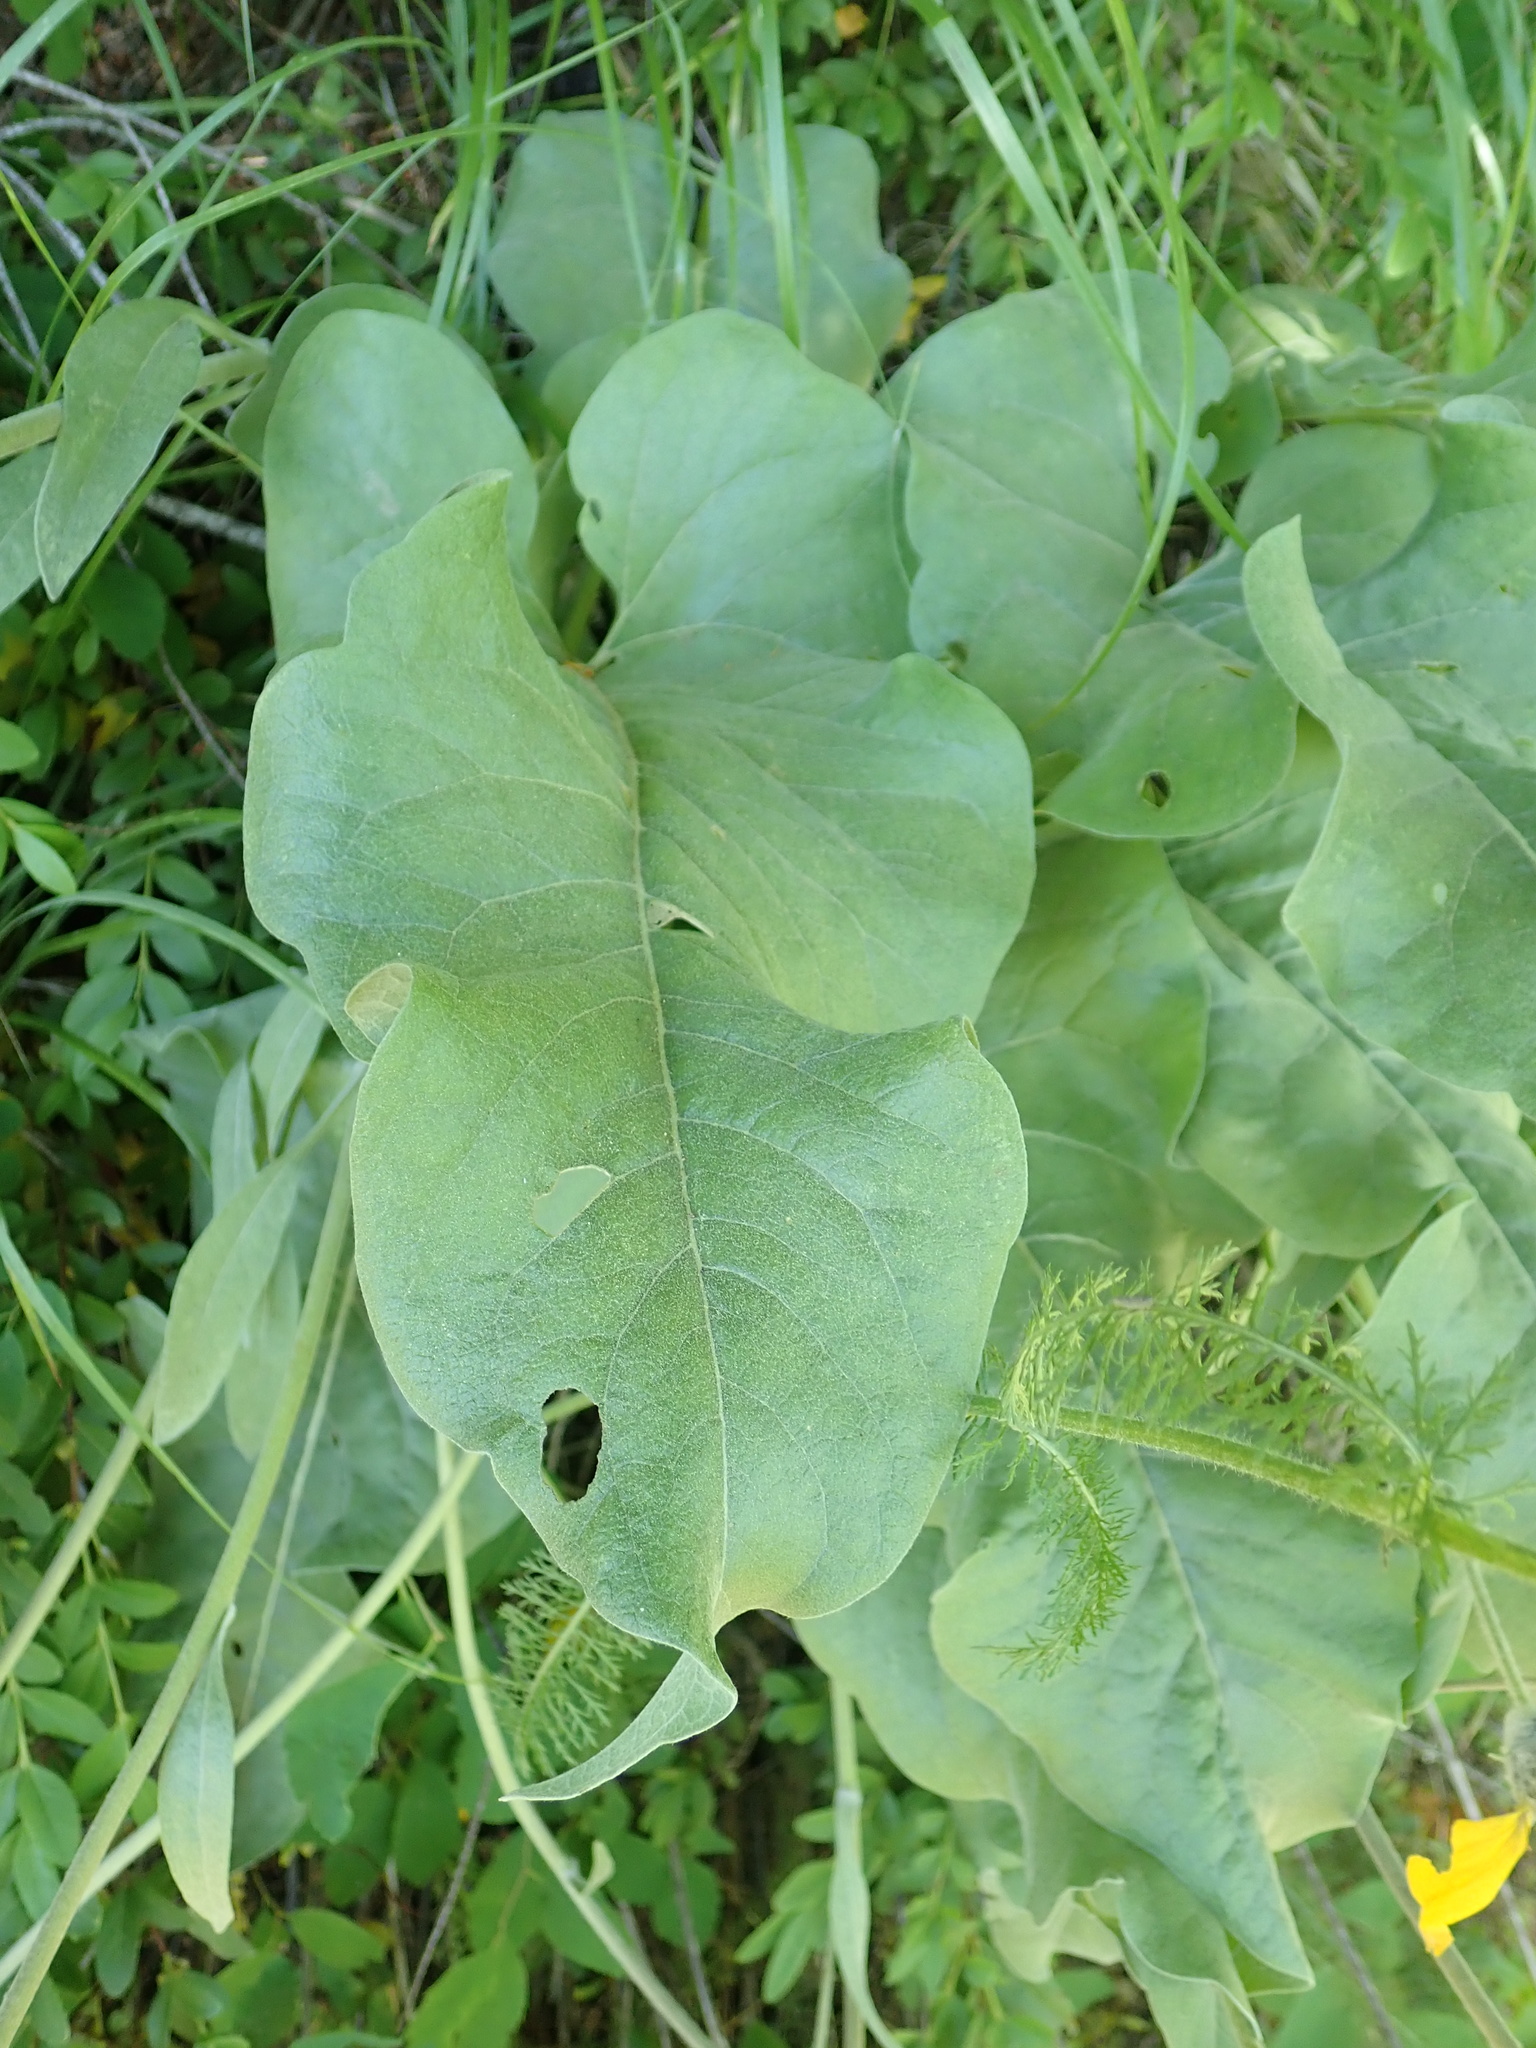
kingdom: Plantae
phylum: Tracheophyta
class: Magnoliopsida
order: Asterales
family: Asteraceae
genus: Wyethia
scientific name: Wyethia sagittata
